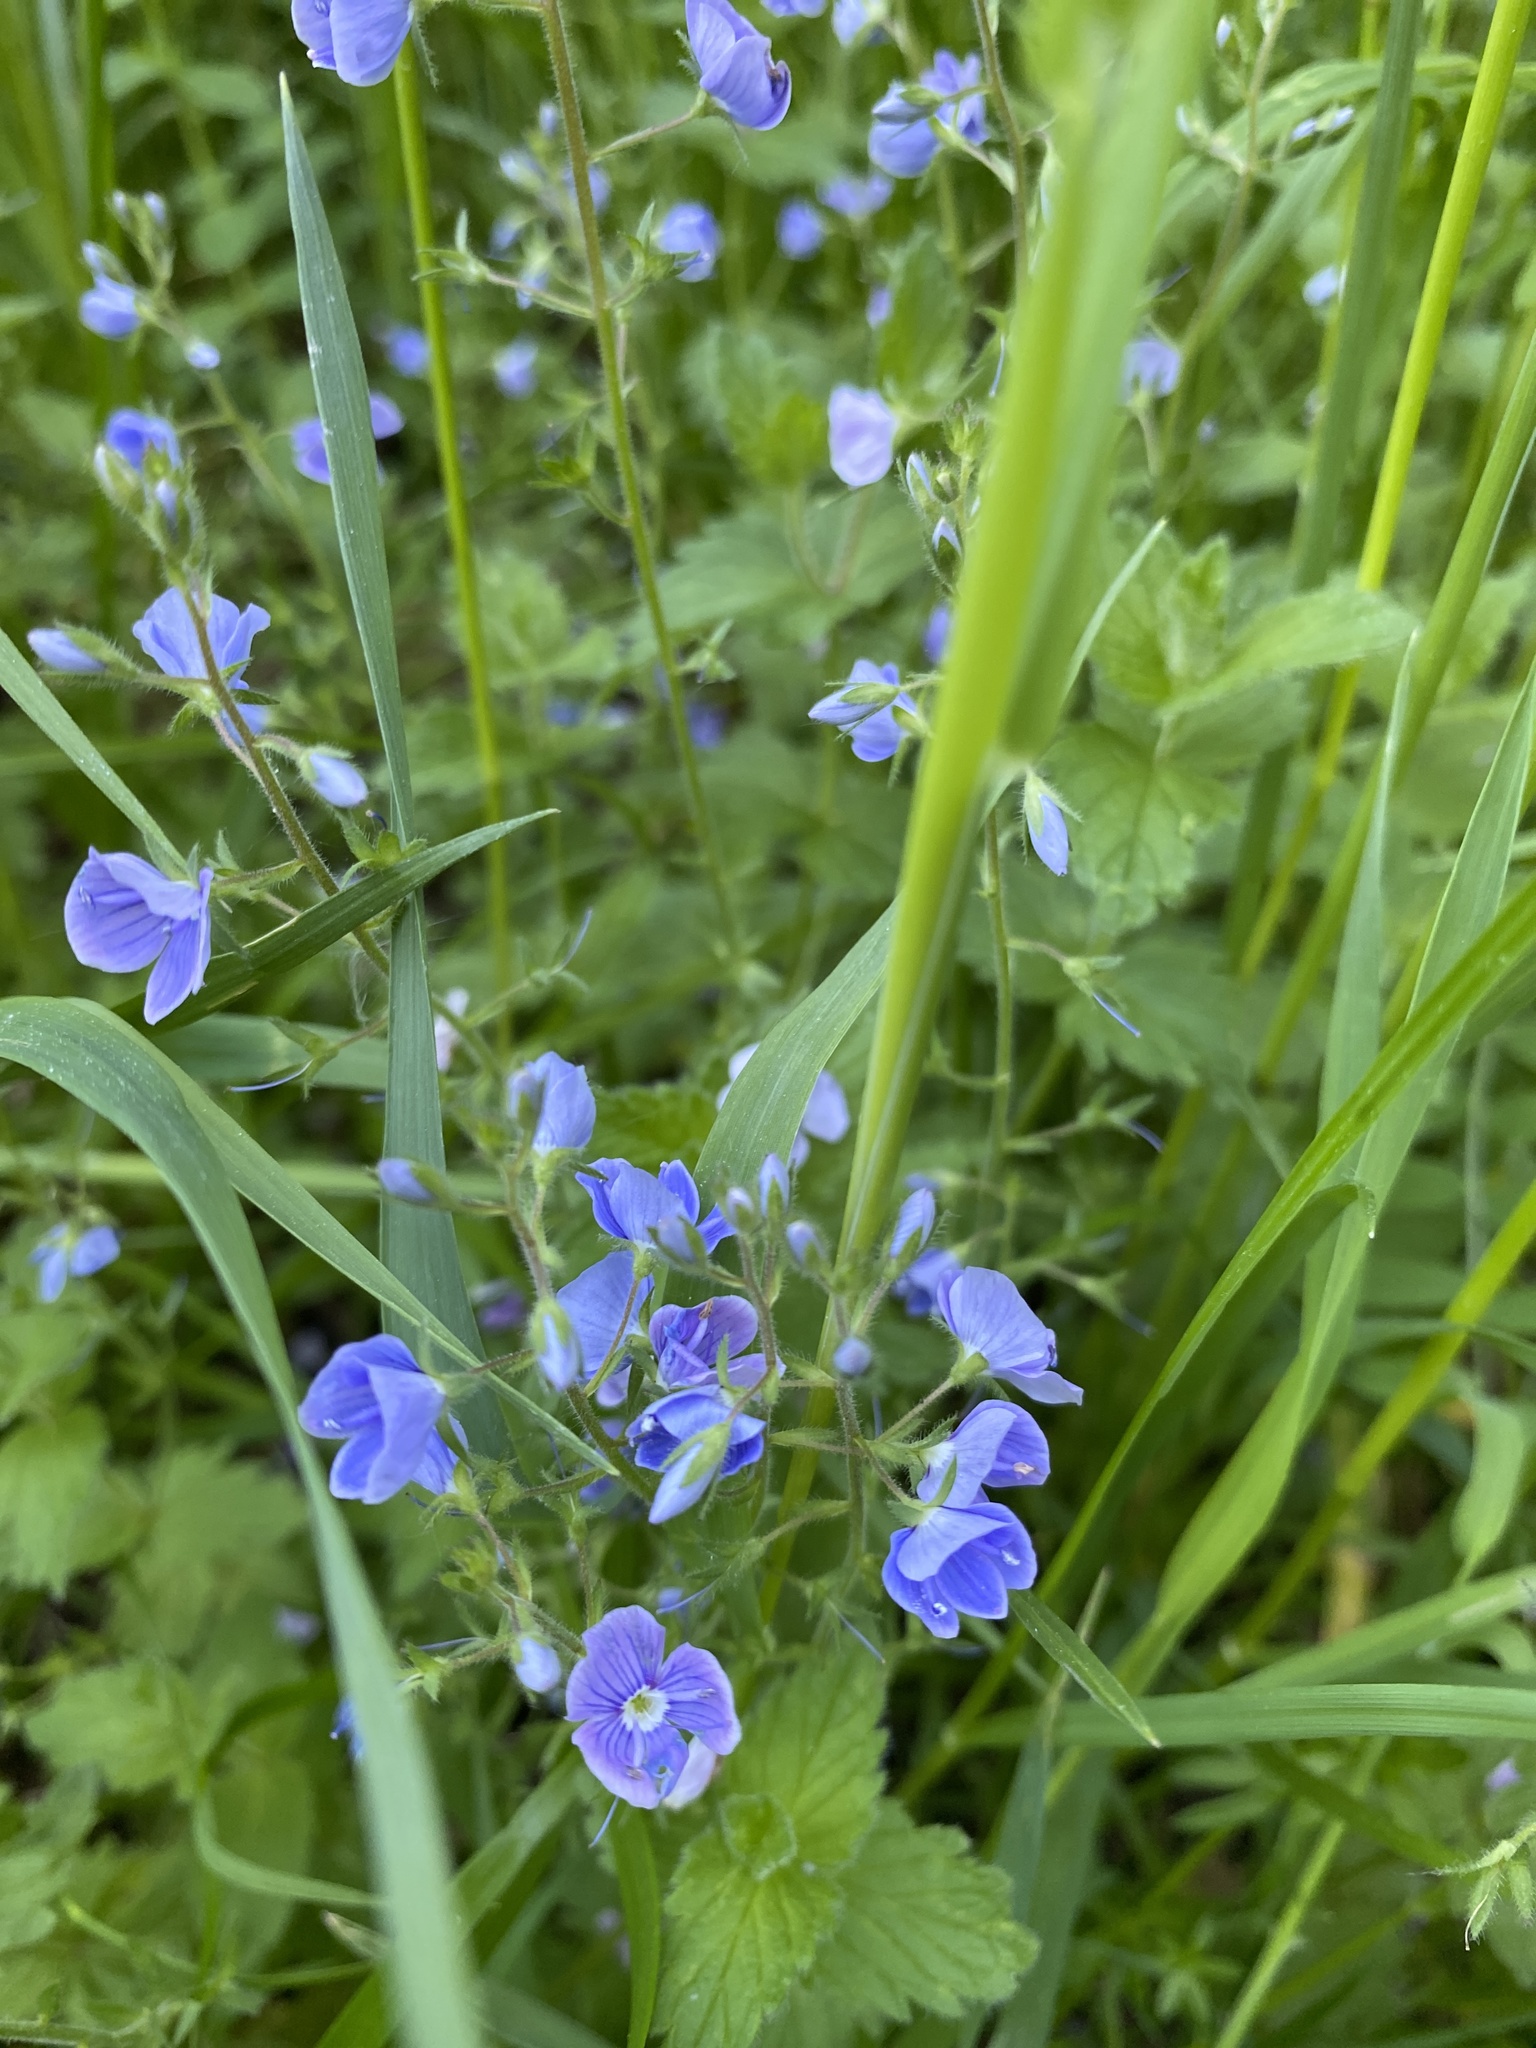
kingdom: Plantae
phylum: Tracheophyta
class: Magnoliopsida
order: Lamiales
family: Plantaginaceae
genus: Veronica
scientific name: Veronica chamaedrys
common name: Germander speedwell
